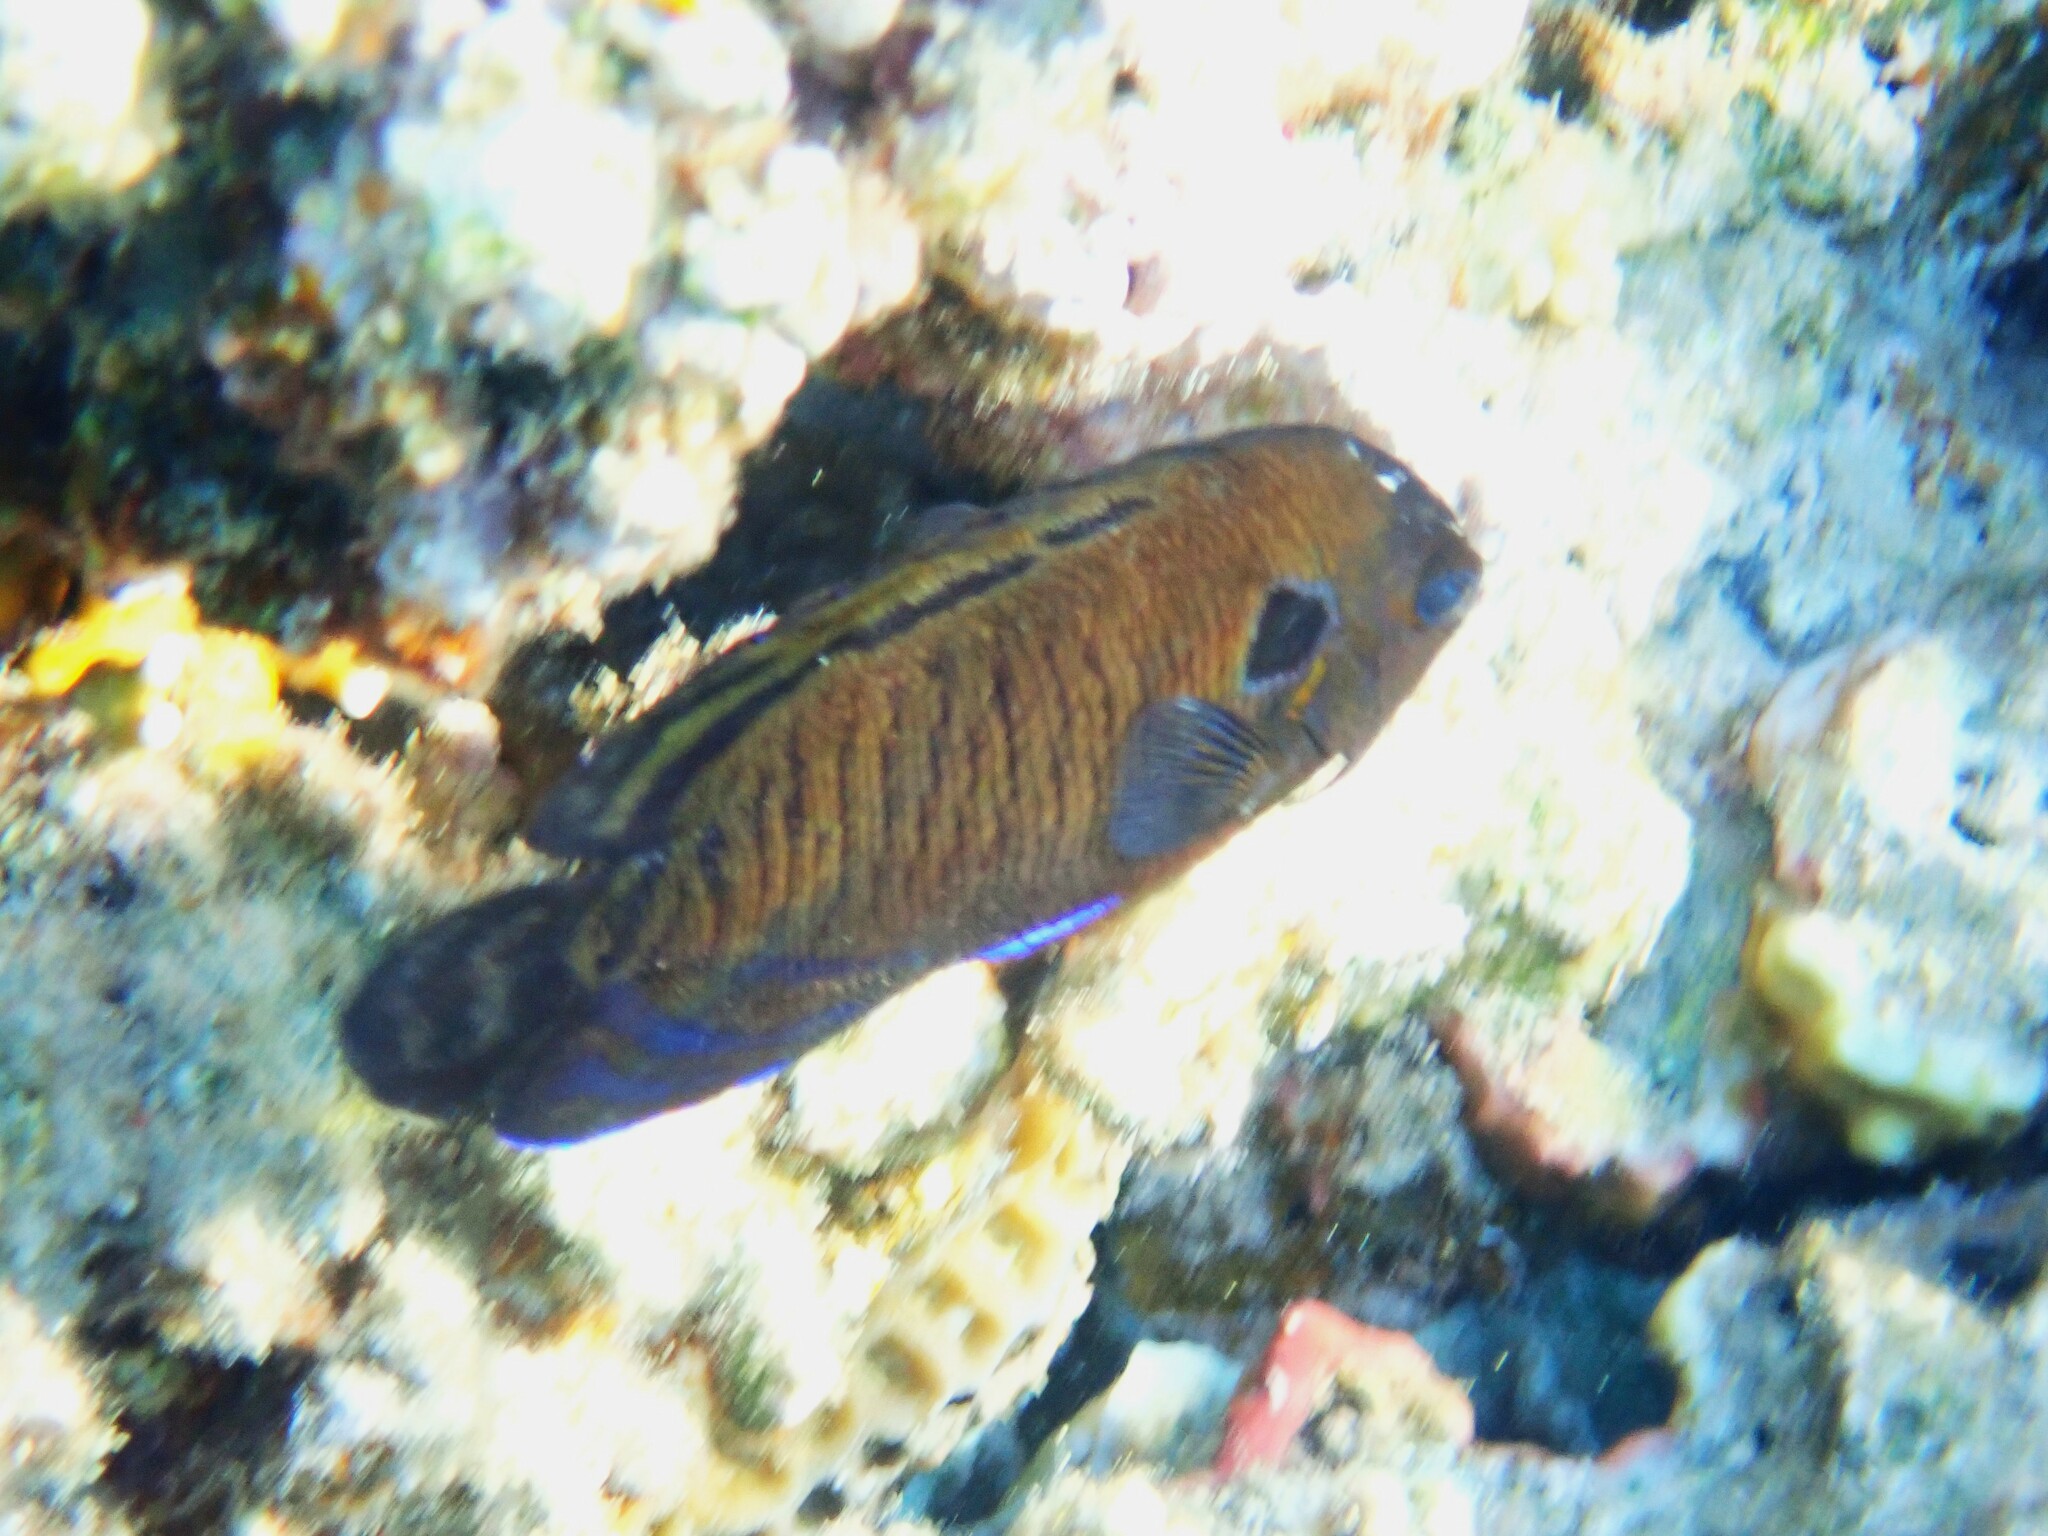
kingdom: Animalia
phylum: Chordata
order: Perciformes
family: Pomacanthidae
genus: Centropyge
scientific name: Centropyge multispinis
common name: Many-spined angelfish
